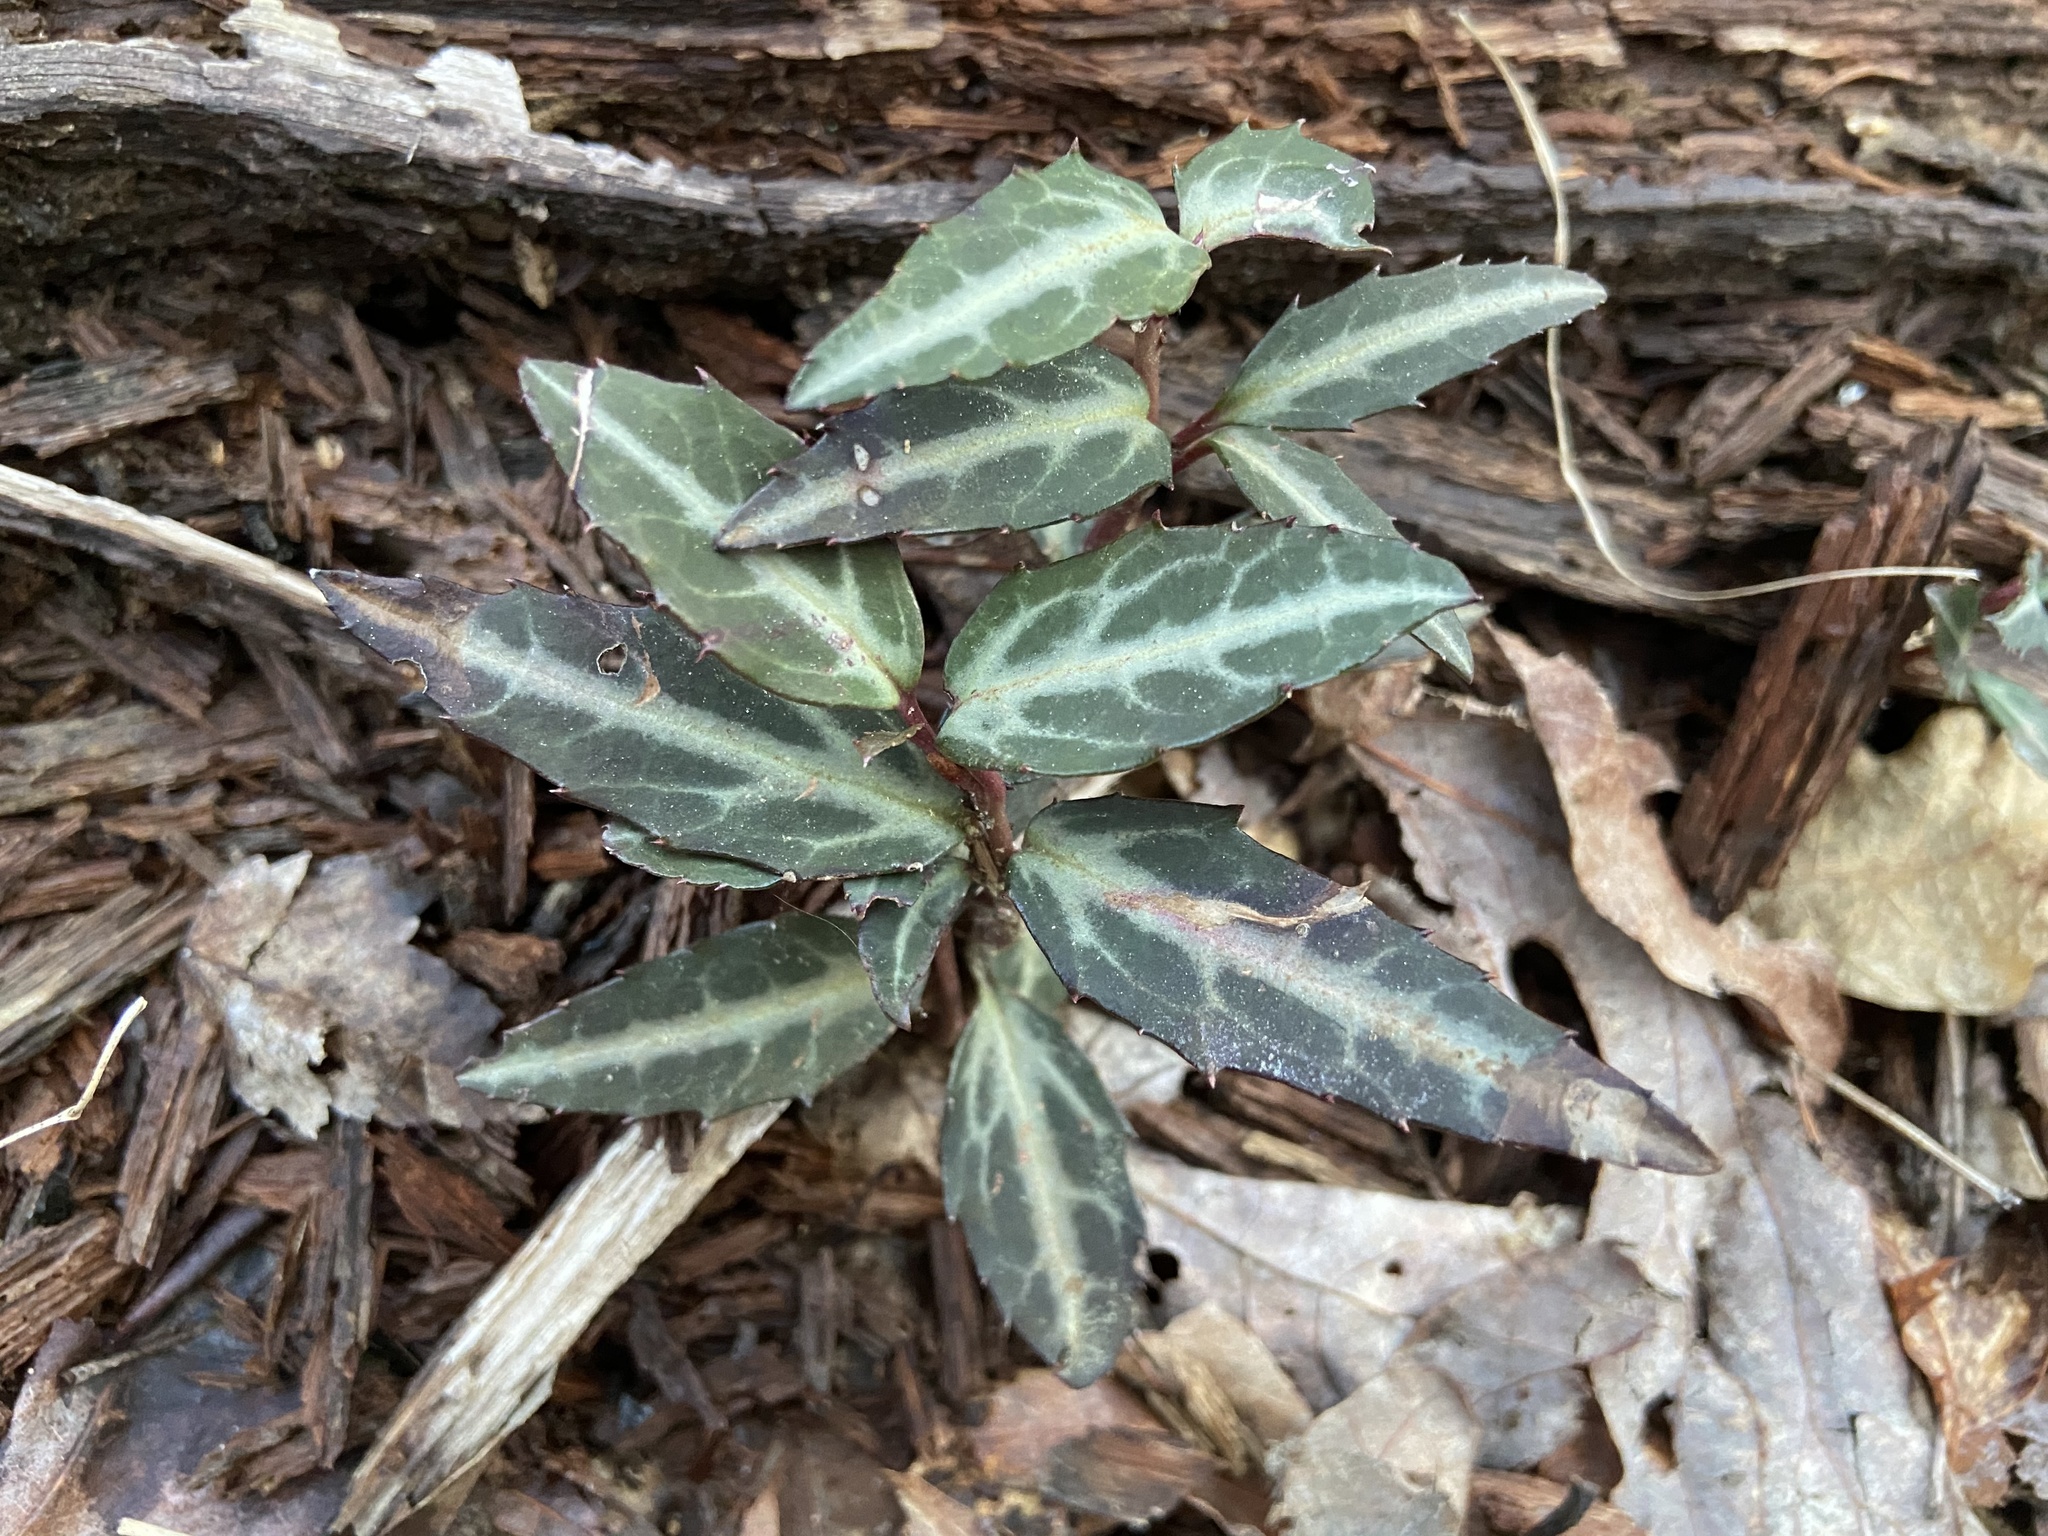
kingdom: Plantae
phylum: Tracheophyta
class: Magnoliopsida
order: Ericales
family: Ericaceae
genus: Chimaphila
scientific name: Chimaphila maculata
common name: Spotted pipsissewa
